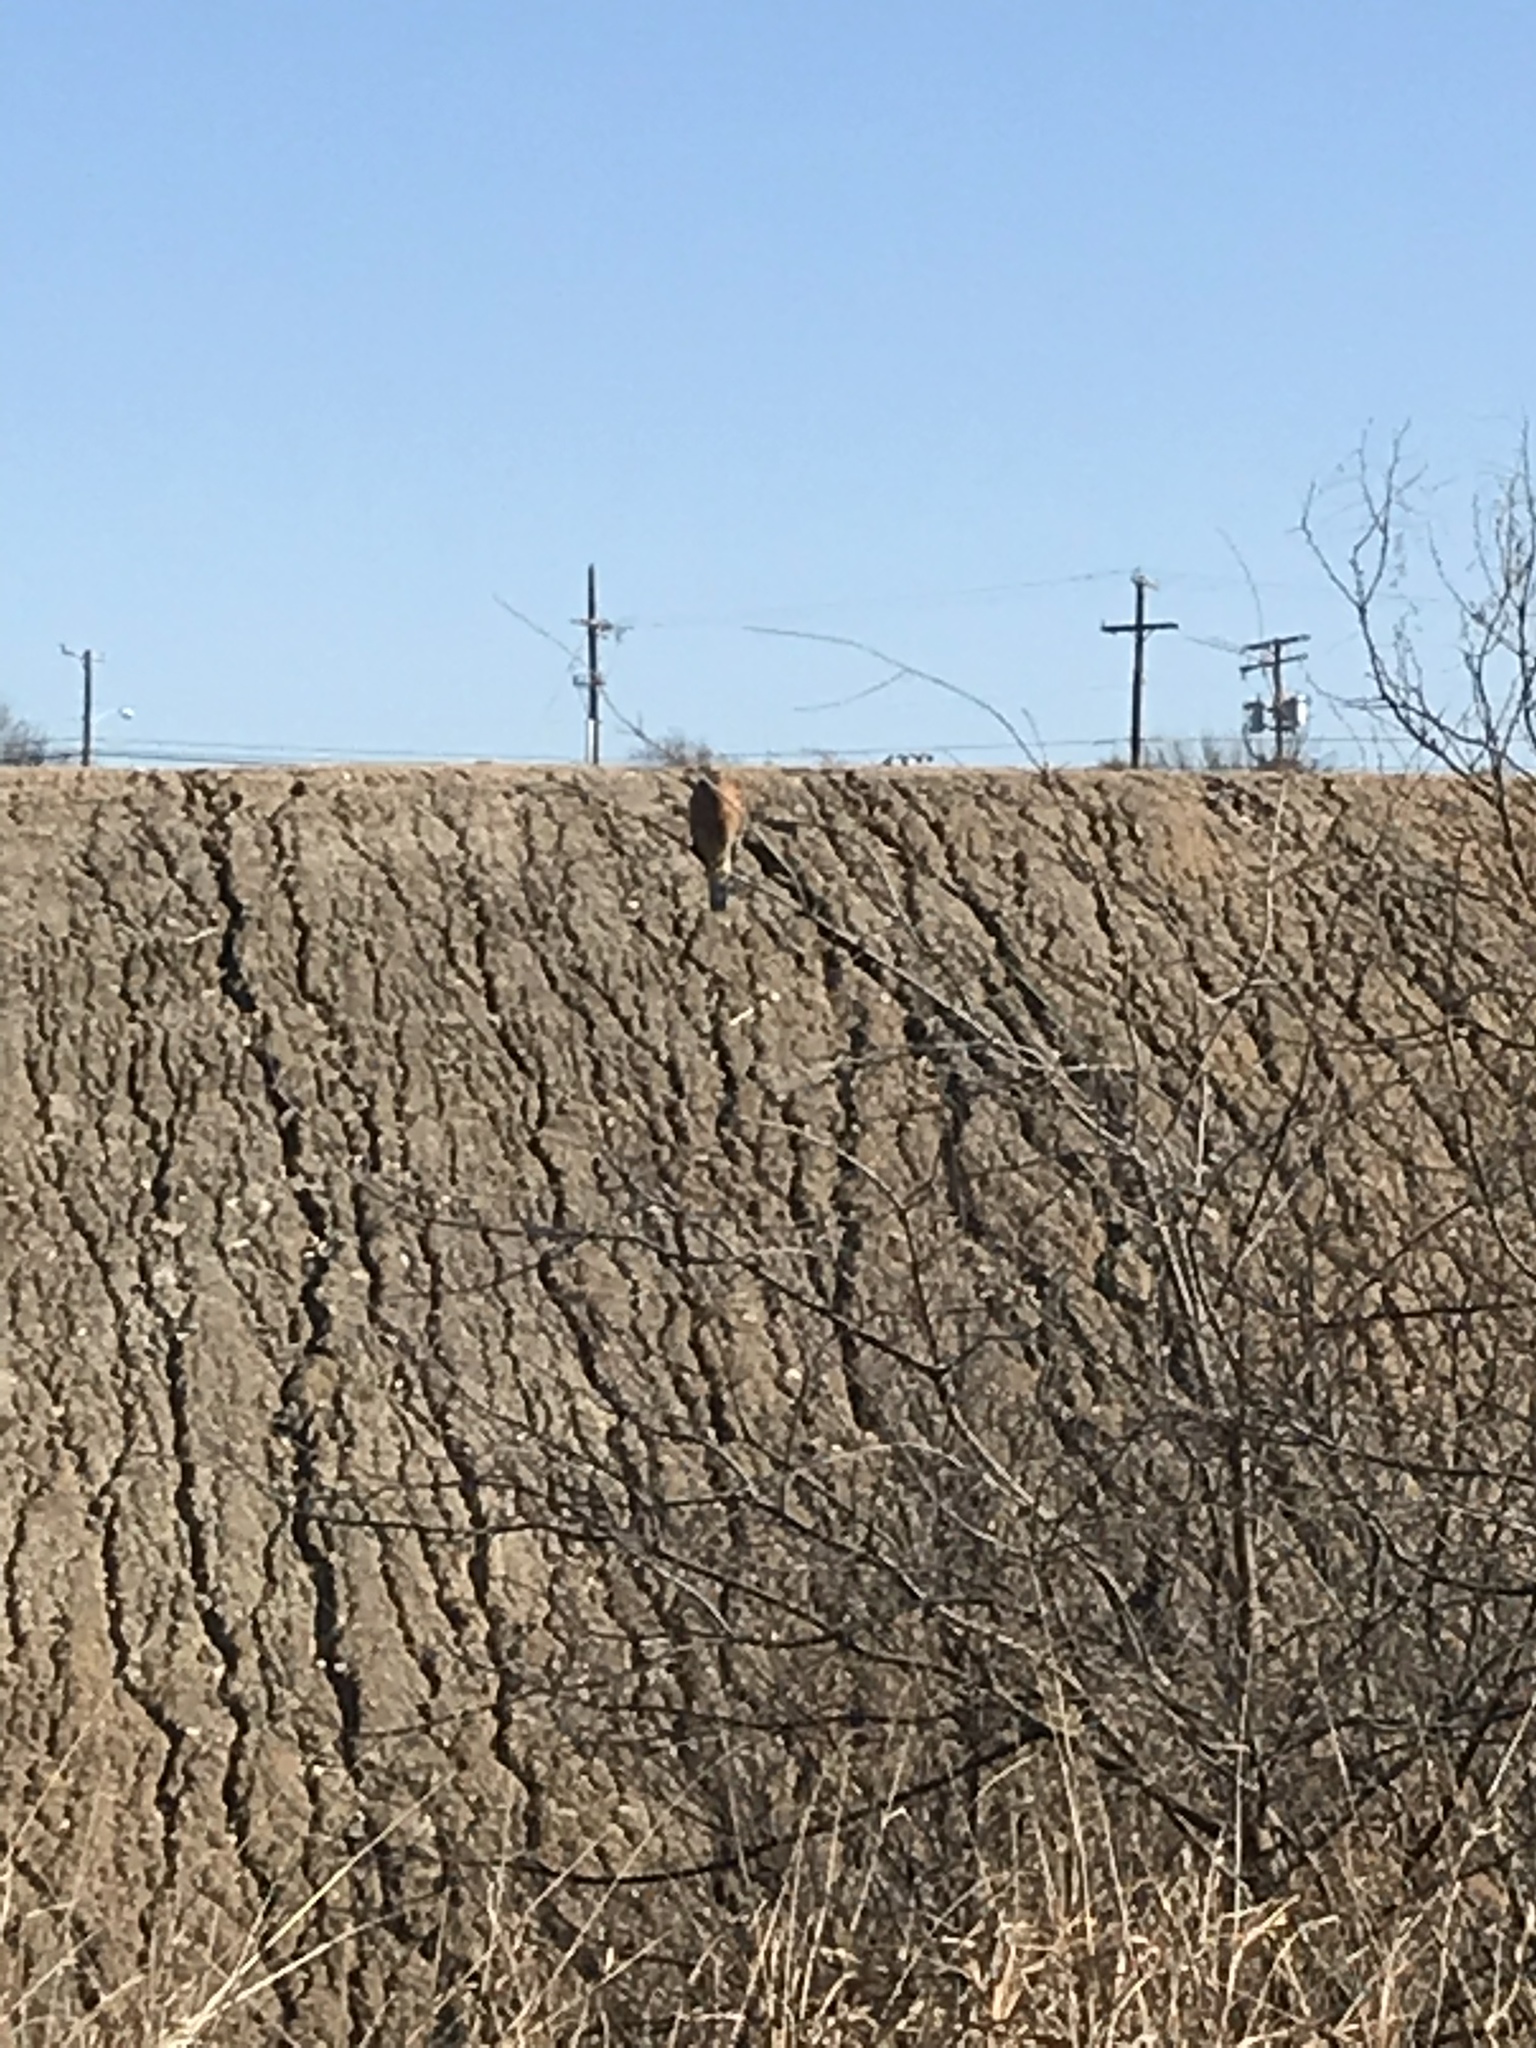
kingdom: Animalia
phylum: Chordata
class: Aves
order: Accipitriformes
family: Accipitridae
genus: Buteo
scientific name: Buteo lineatus
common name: Red-shouldered hawk
